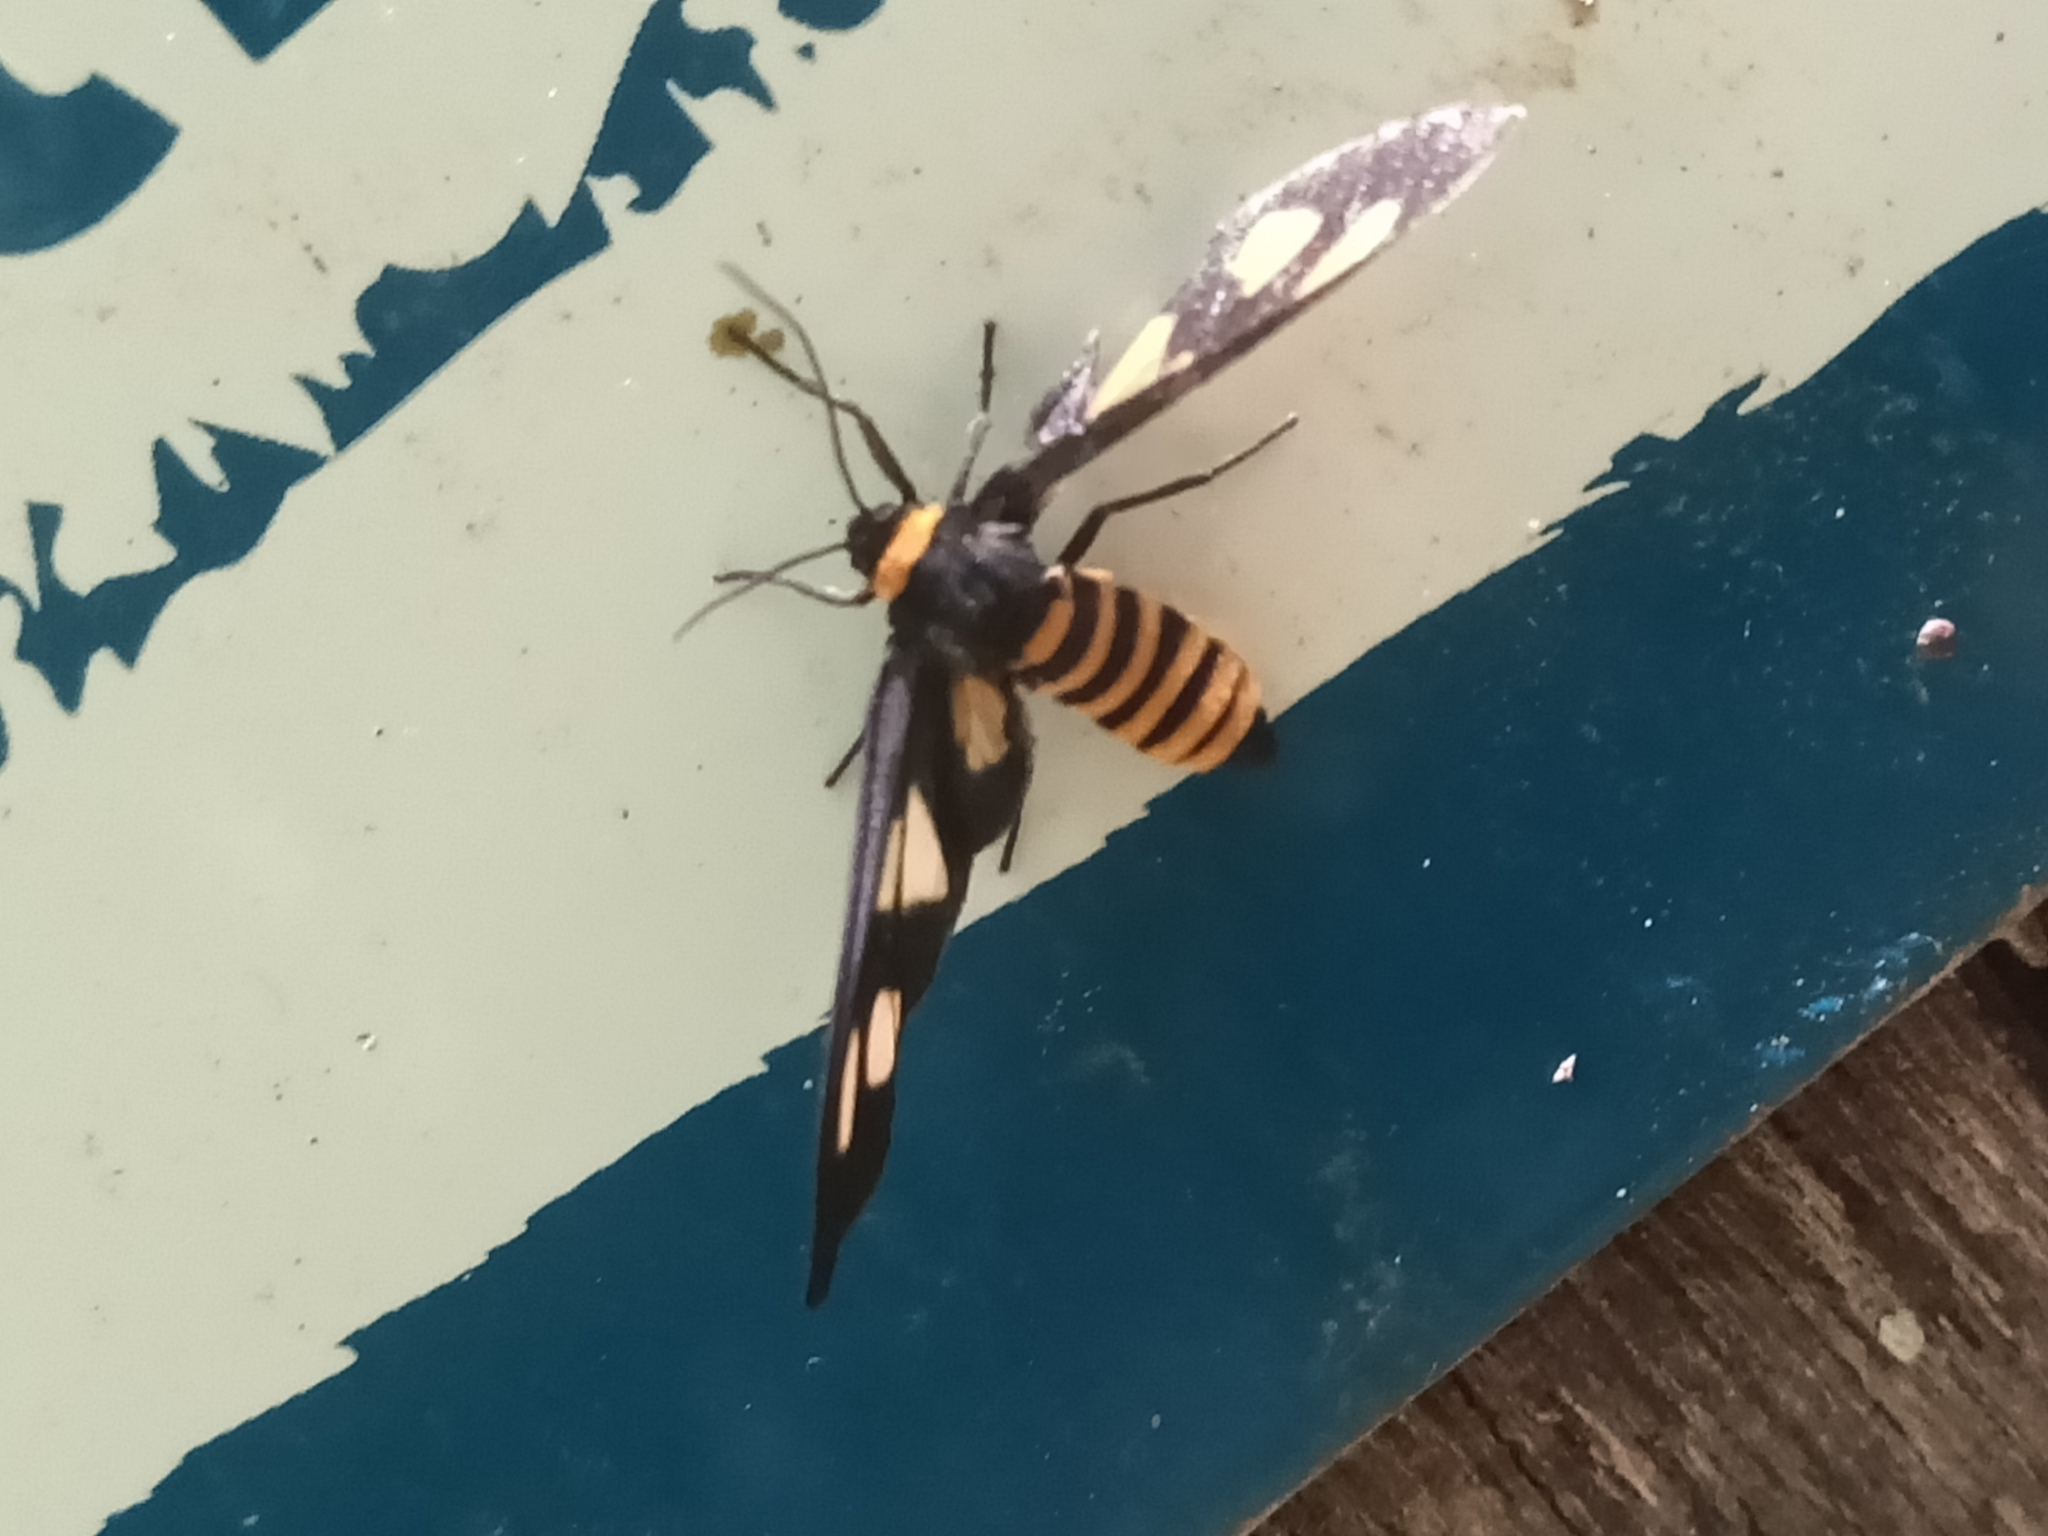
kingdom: Animalia
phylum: Arthropoda
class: Insecta
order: Lepidoptera
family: Erebidae
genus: Eressa
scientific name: Eressa angustipenna
